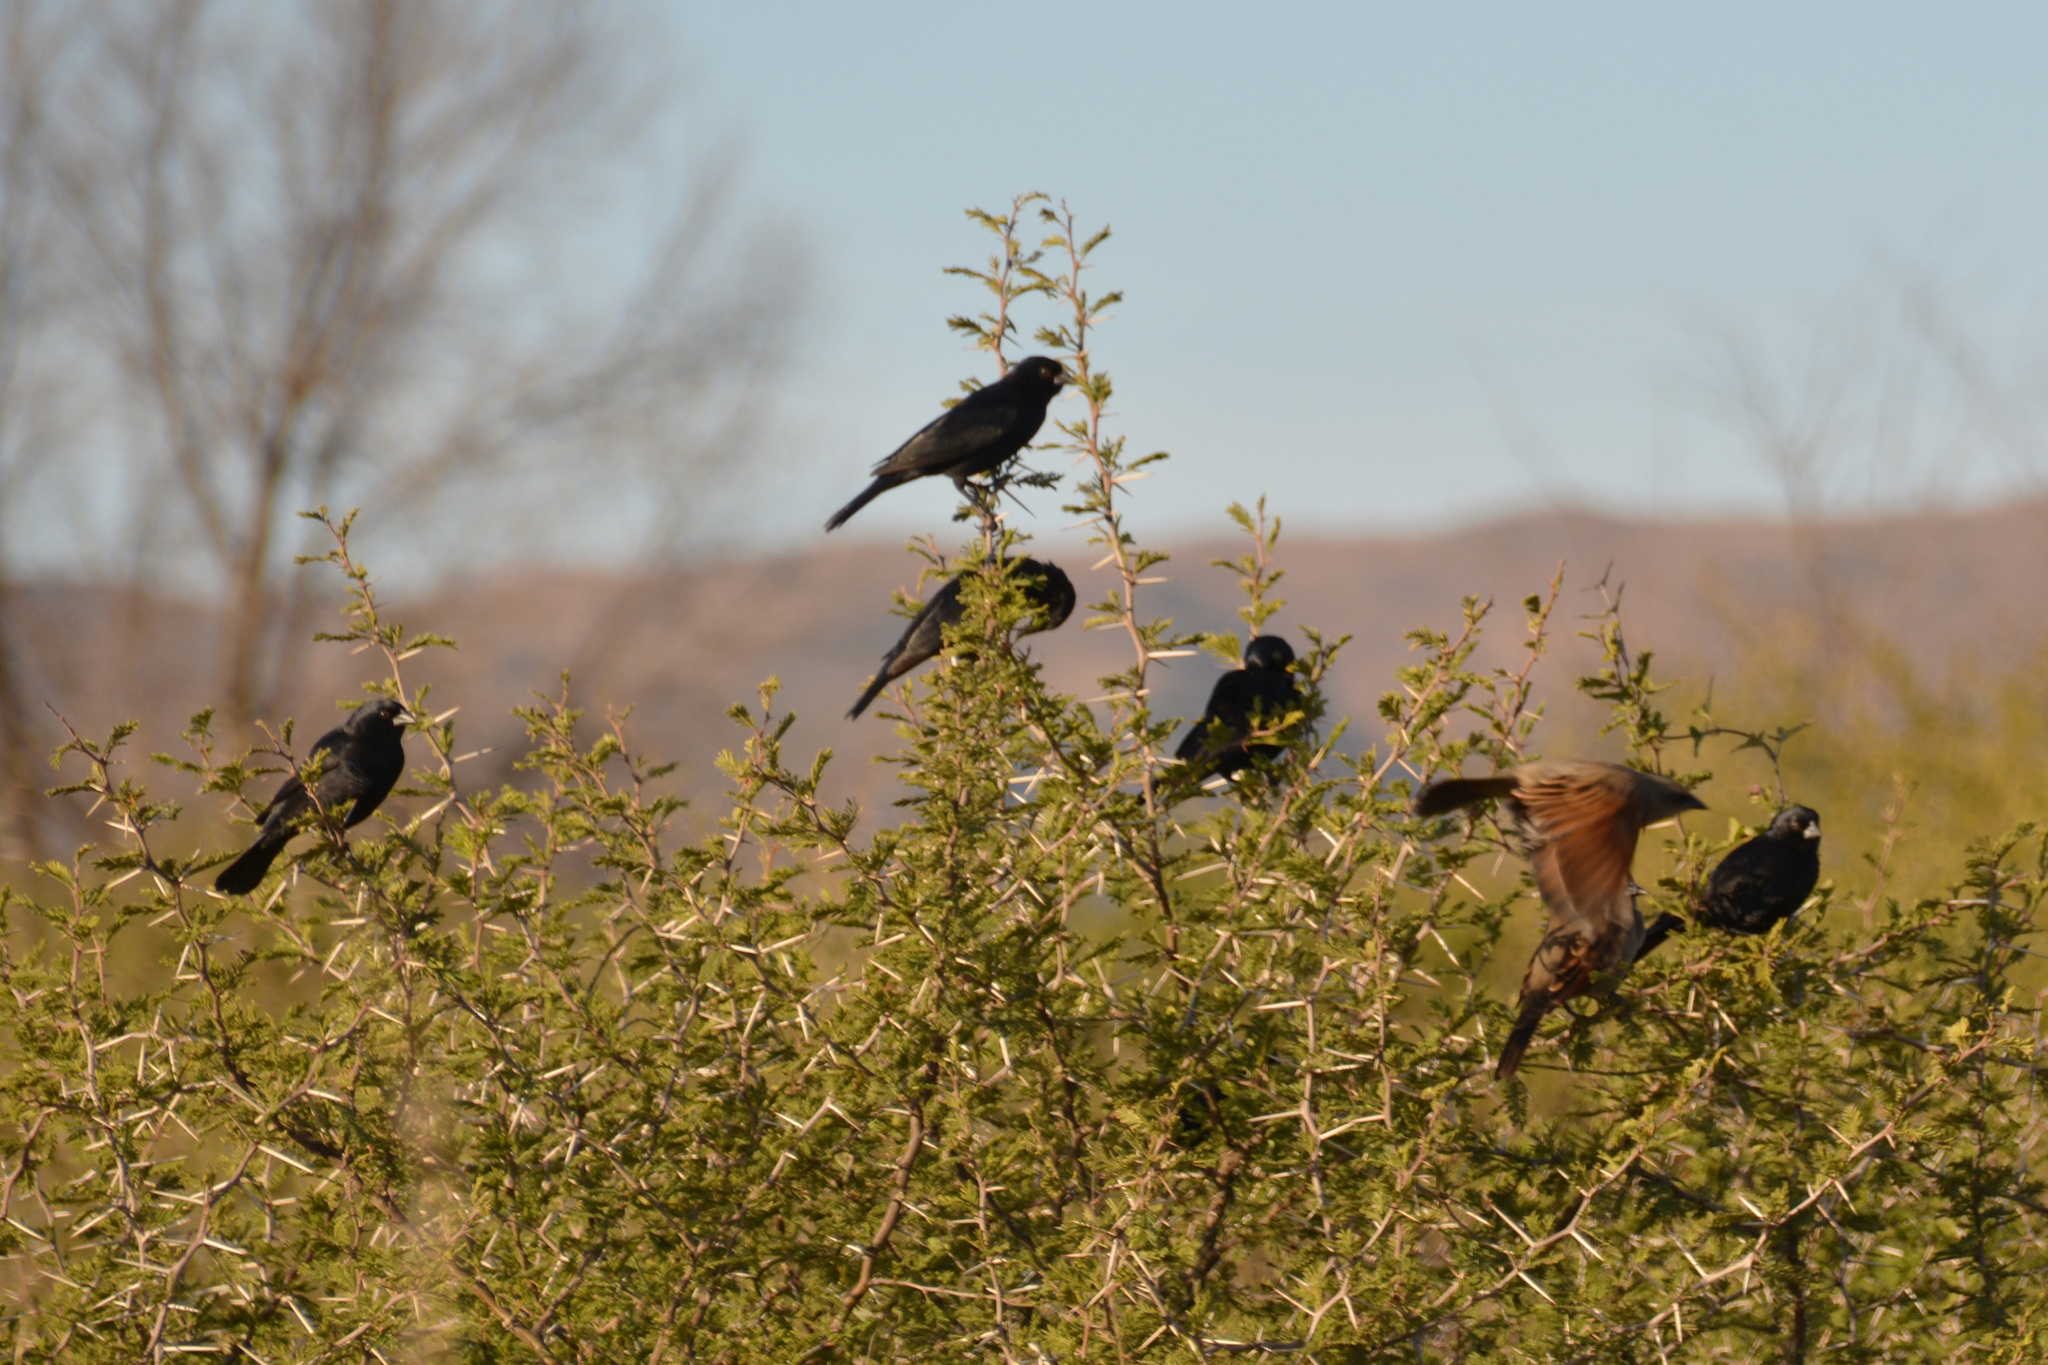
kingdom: Animalia
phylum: Chordata
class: Aves
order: Passeriformes
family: Icteridae
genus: Molothrus
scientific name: Molothrus rufoaxillaris
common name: Screaming cowbird
